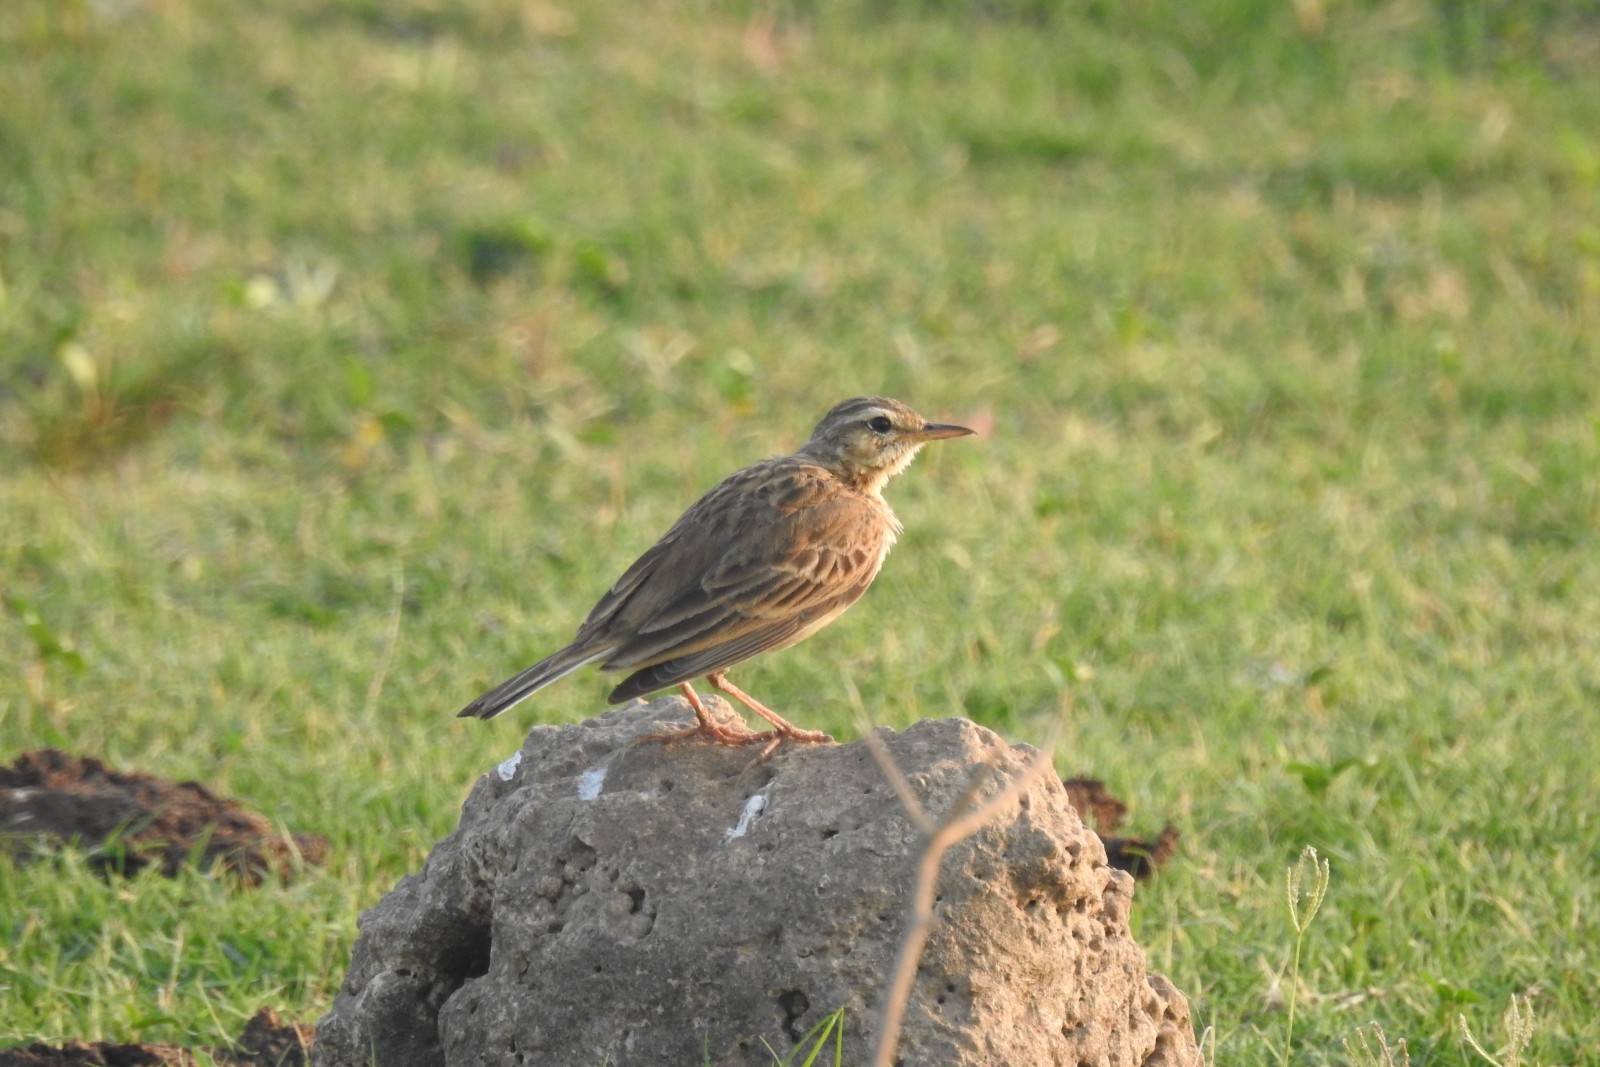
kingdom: Animalia
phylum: Chordata
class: Aves
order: Passeriformes
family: Motacillidae
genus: Anthus
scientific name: Anthus rufulus
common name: Paddyfield pipit
